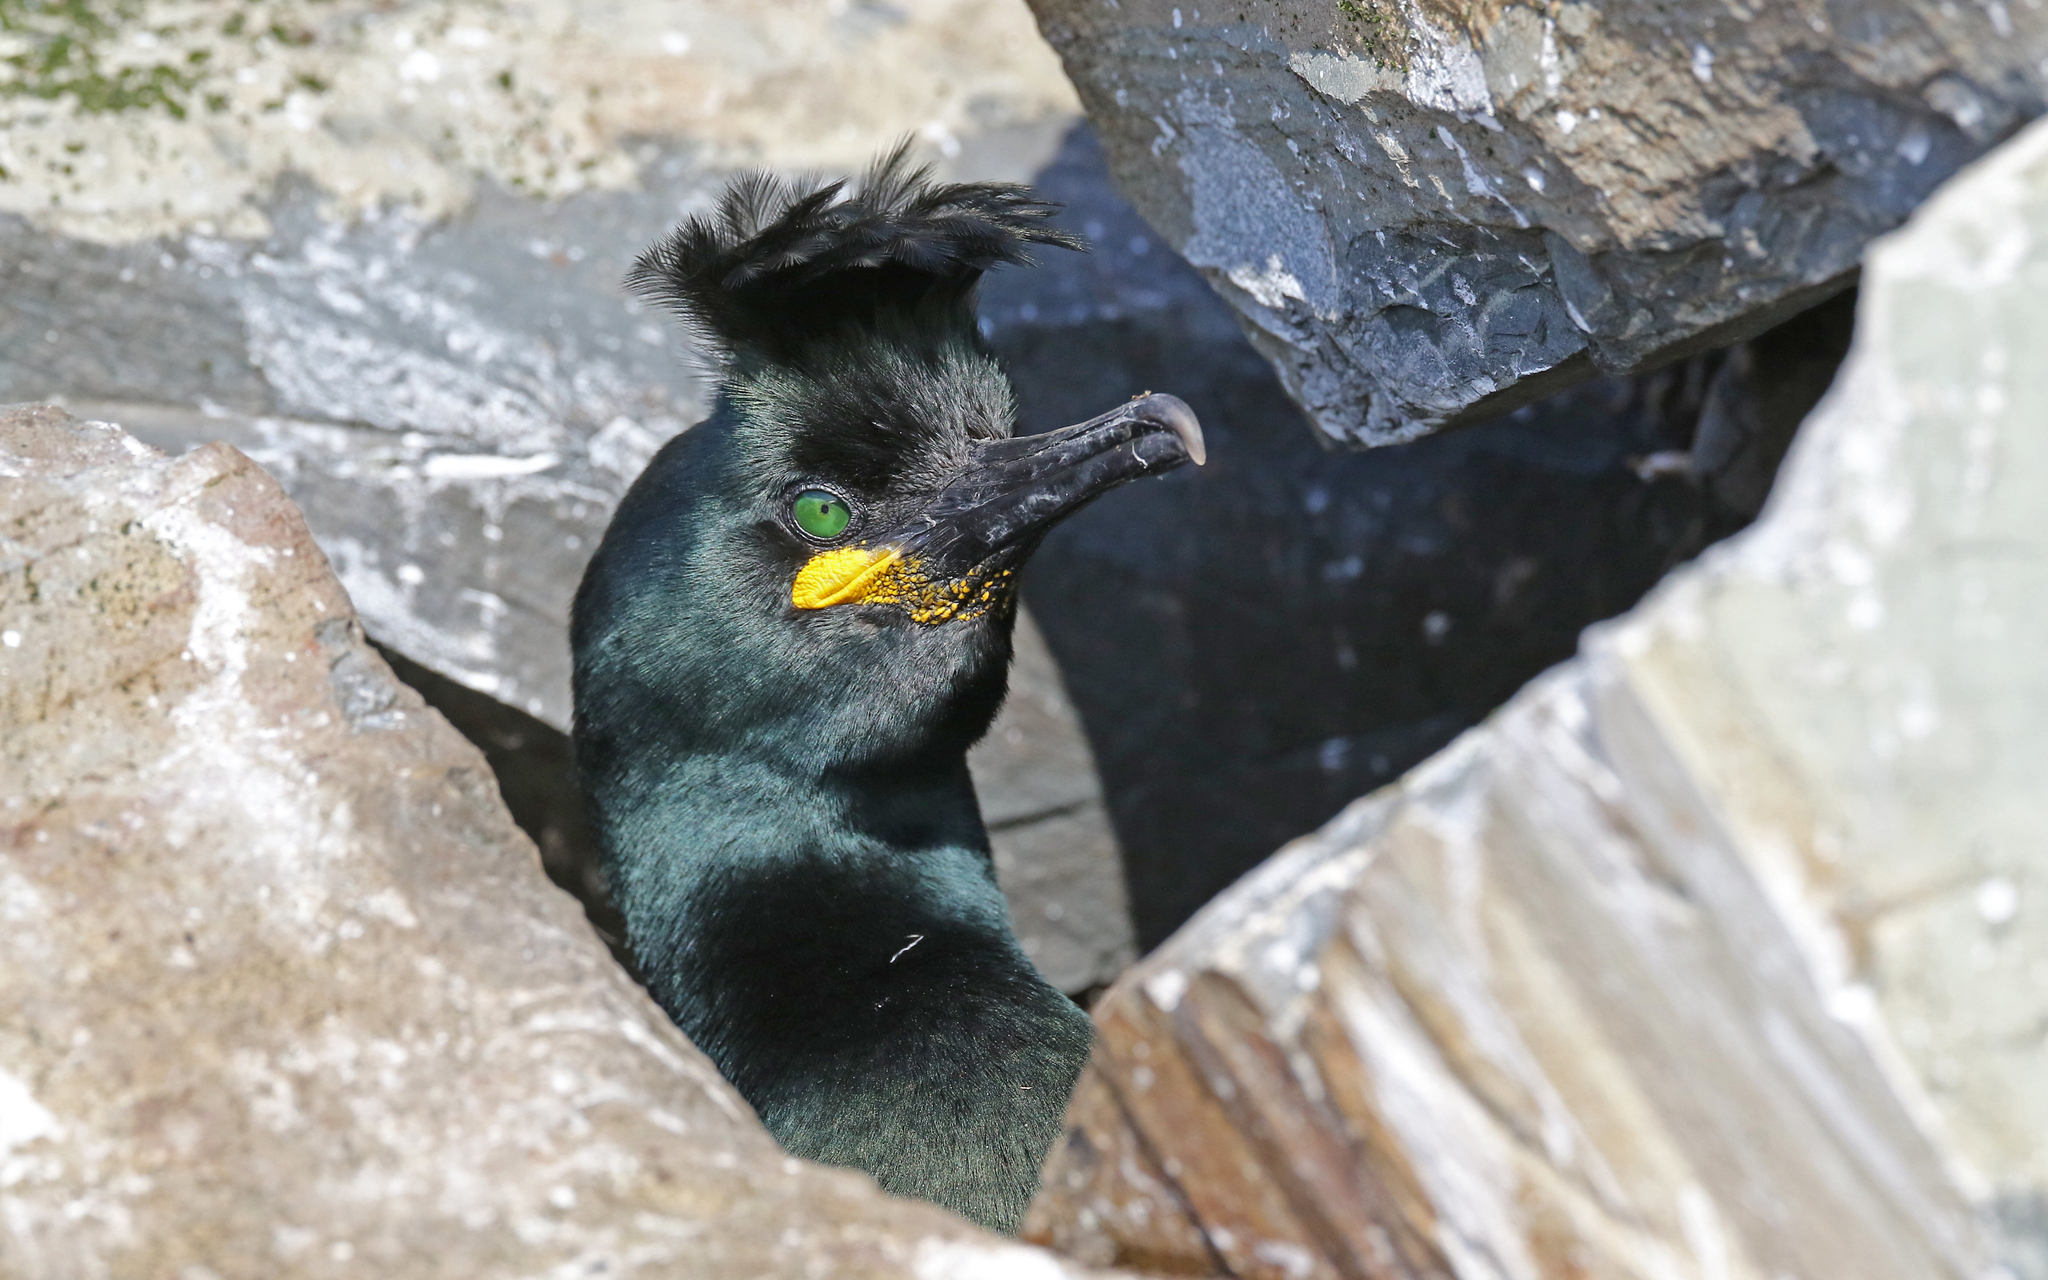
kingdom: Animalia
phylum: Chordata
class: Aves
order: Suliformes
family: Phalacrocoracidae
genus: Phalacrocorax
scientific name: Phalacrocorax aristotelis
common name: European shag
